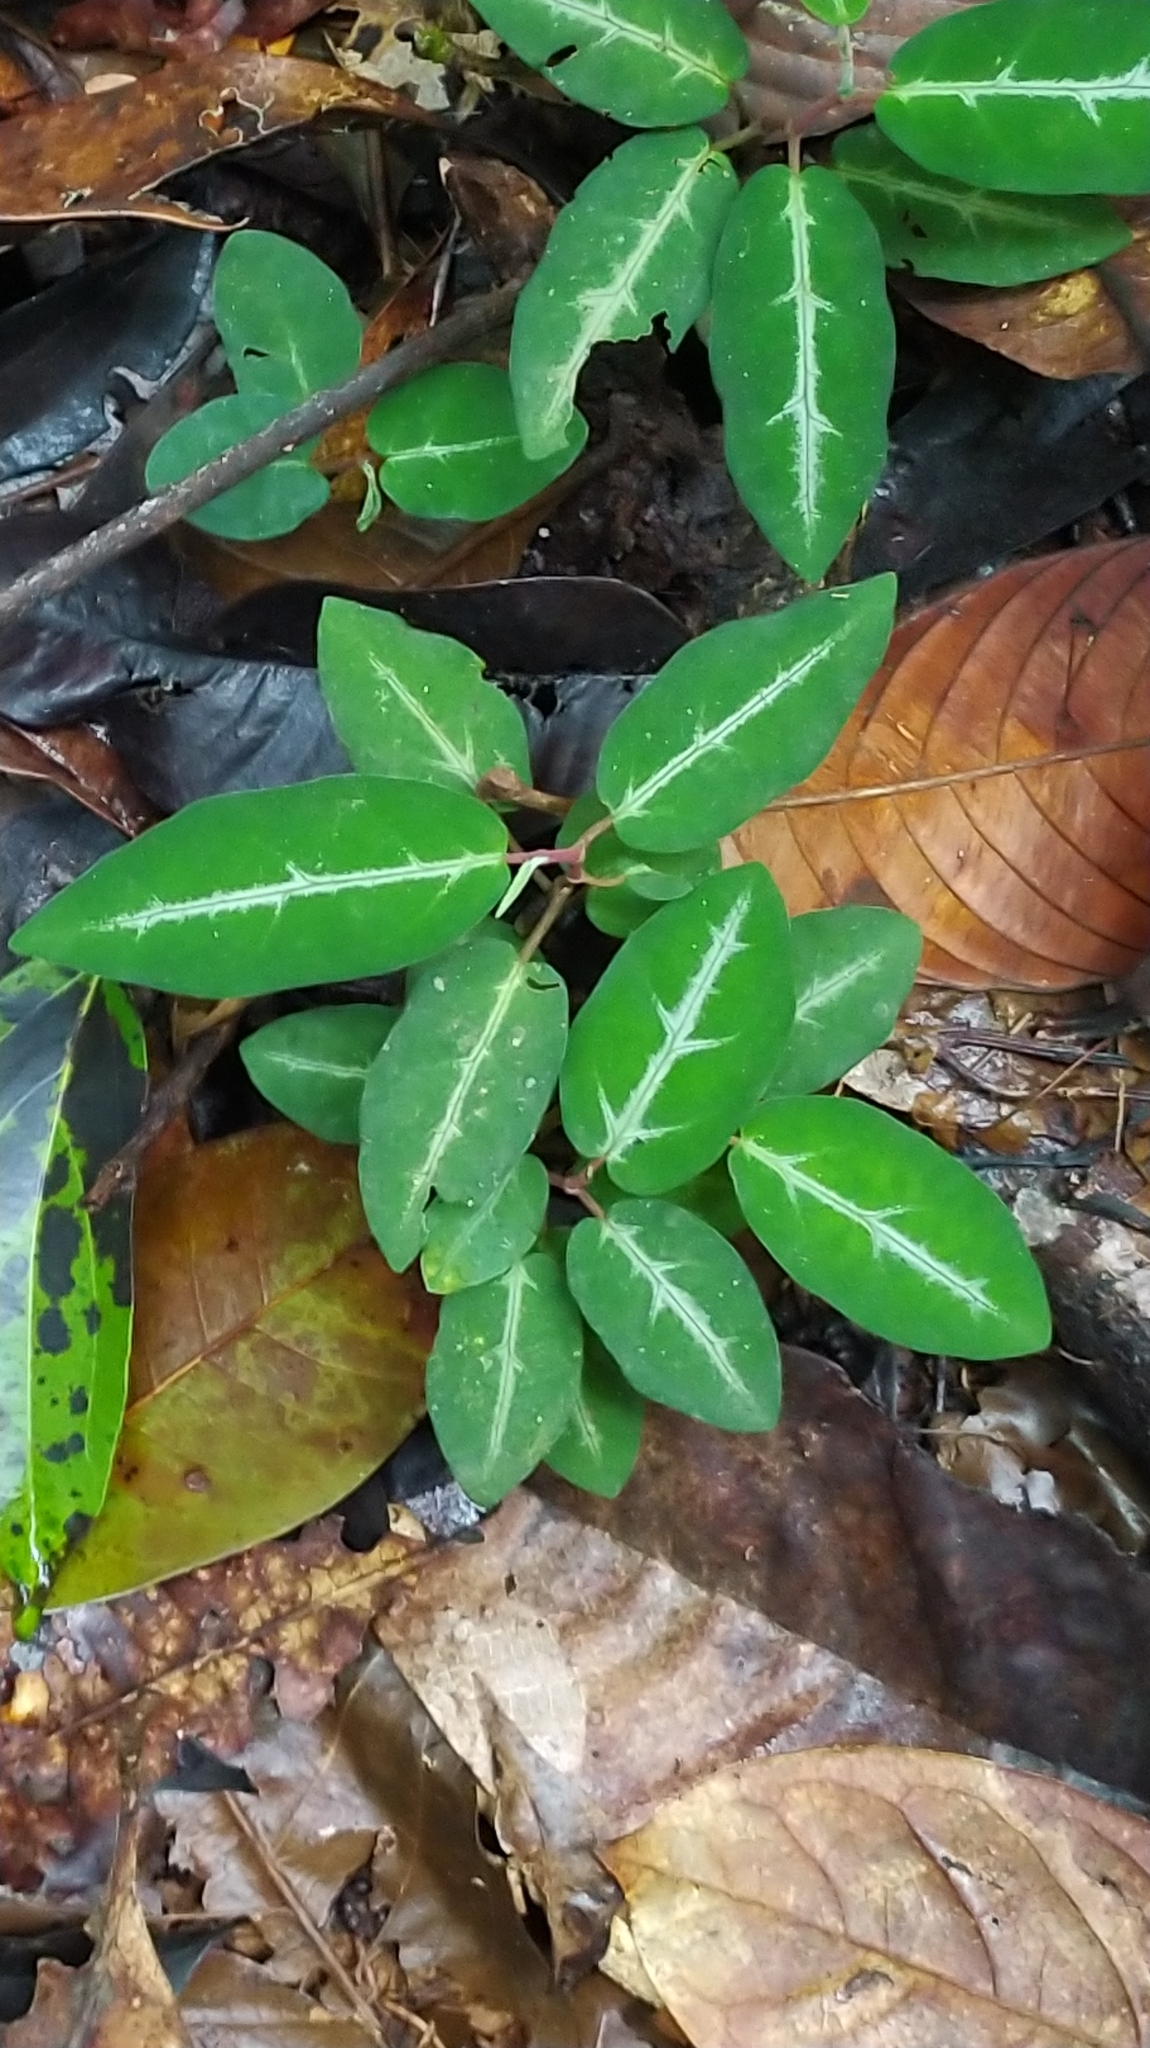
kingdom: Plantae
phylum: Tracheophyta
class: Magnoliopsida
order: Piperales
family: Piperaceae
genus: Piper
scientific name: Piper consanguineum
